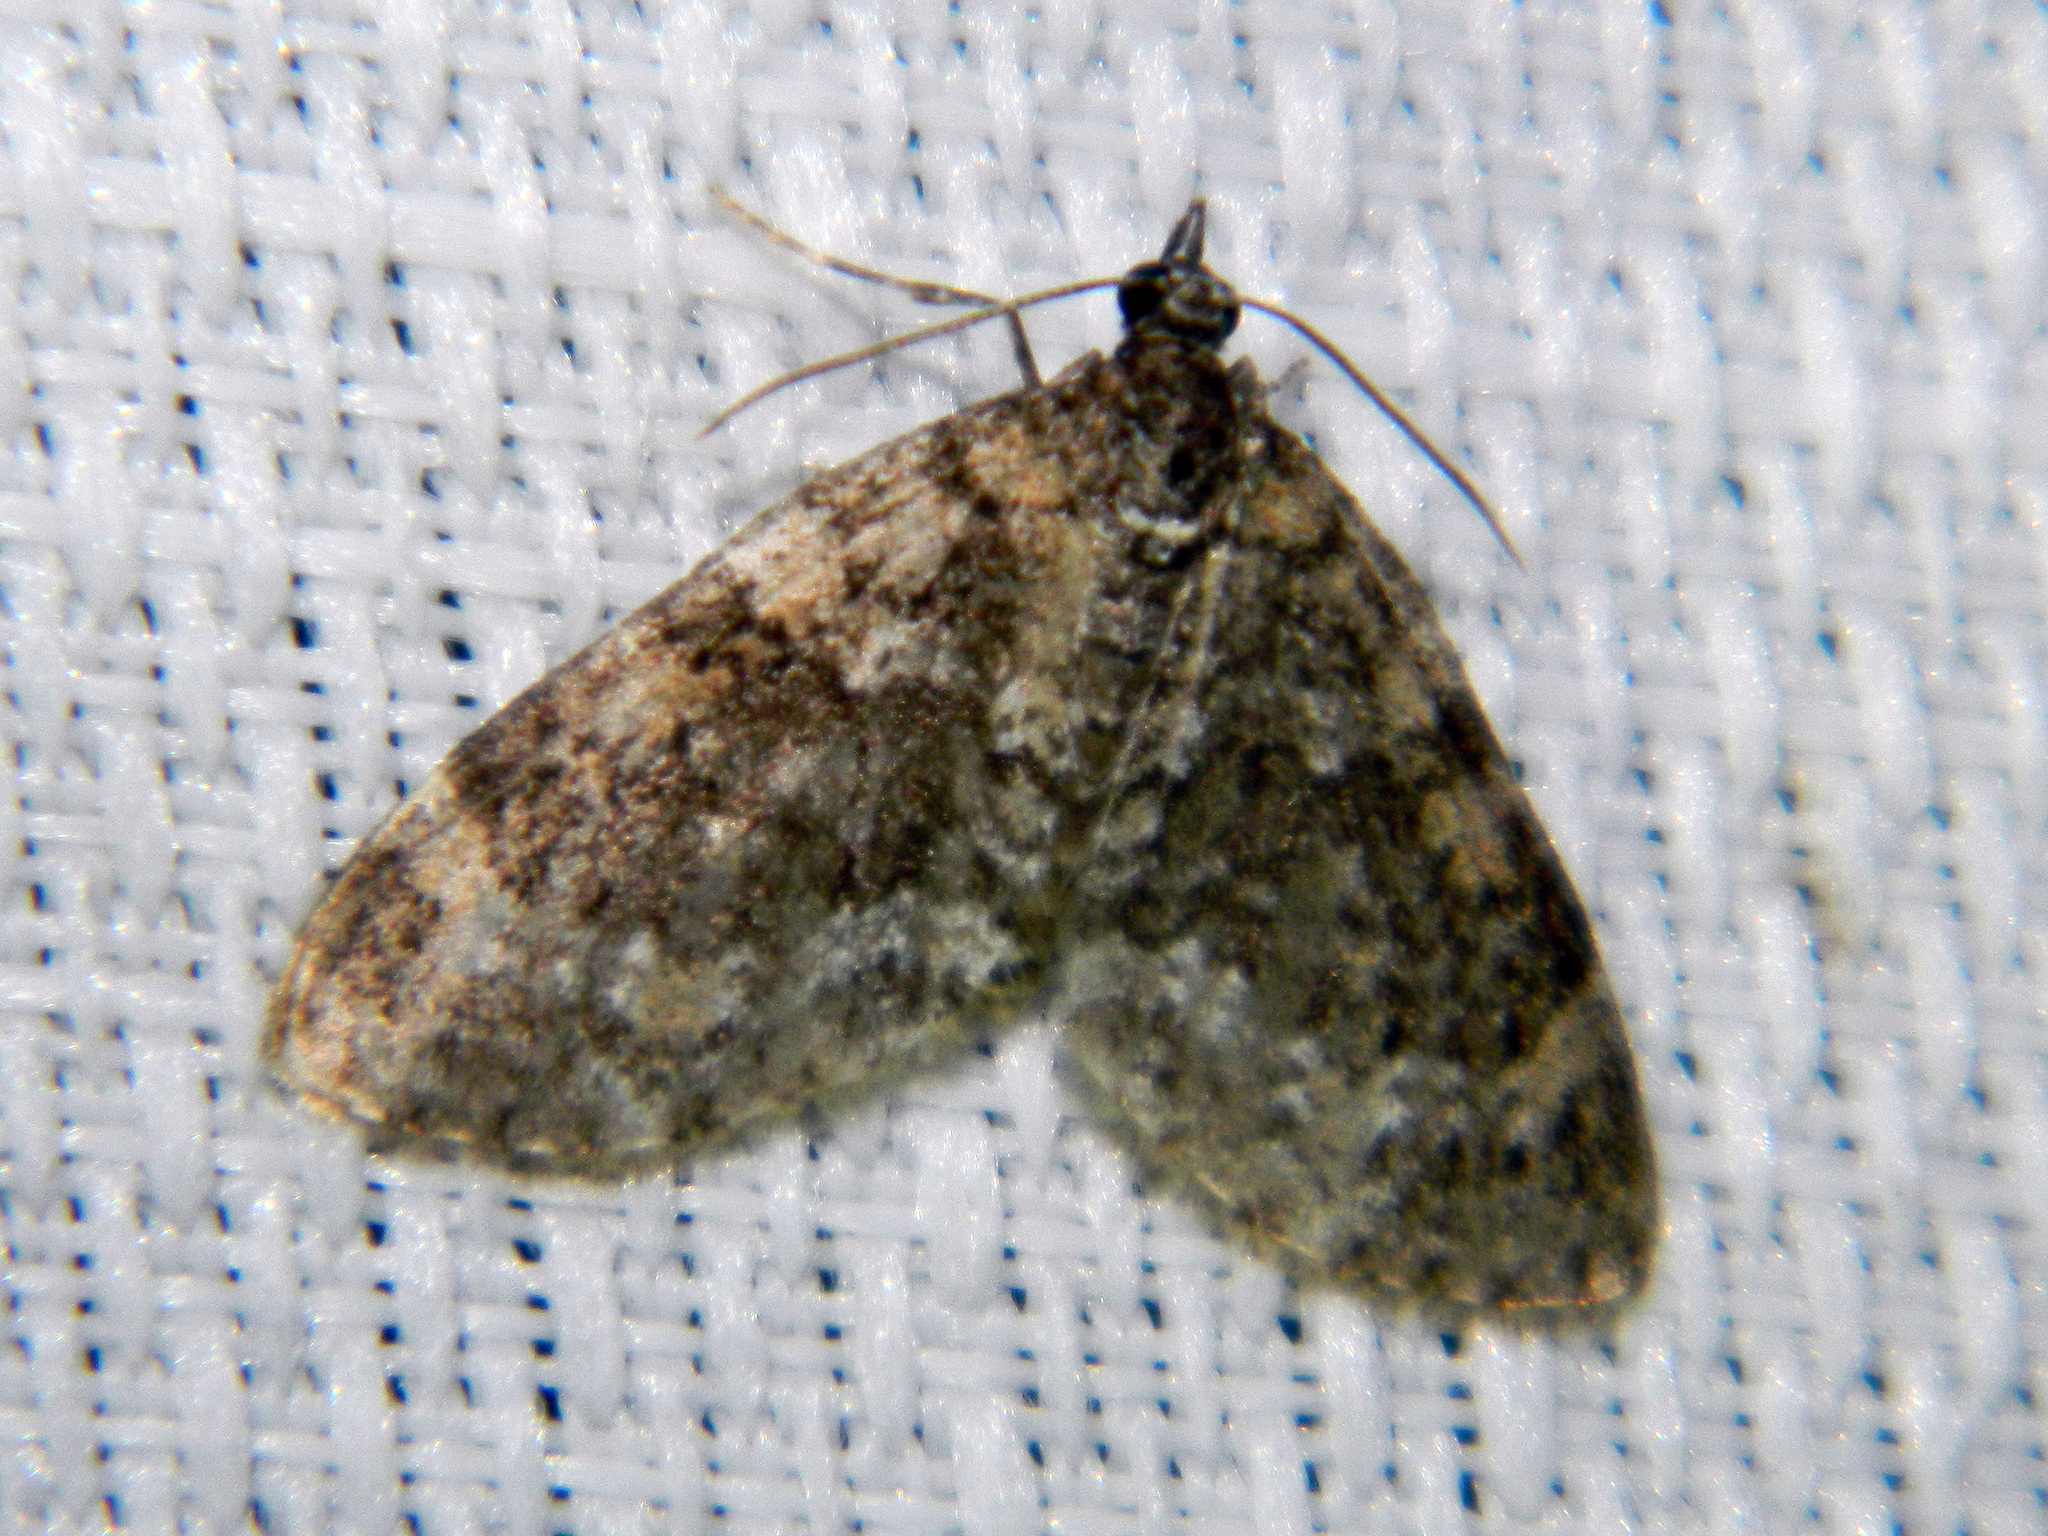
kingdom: Animalia
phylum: Arthropoda
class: Insecta
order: Lepidoptera
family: Geometridae
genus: Acasis
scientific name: Acasis viridata
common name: Olive-and-black carpet moth
